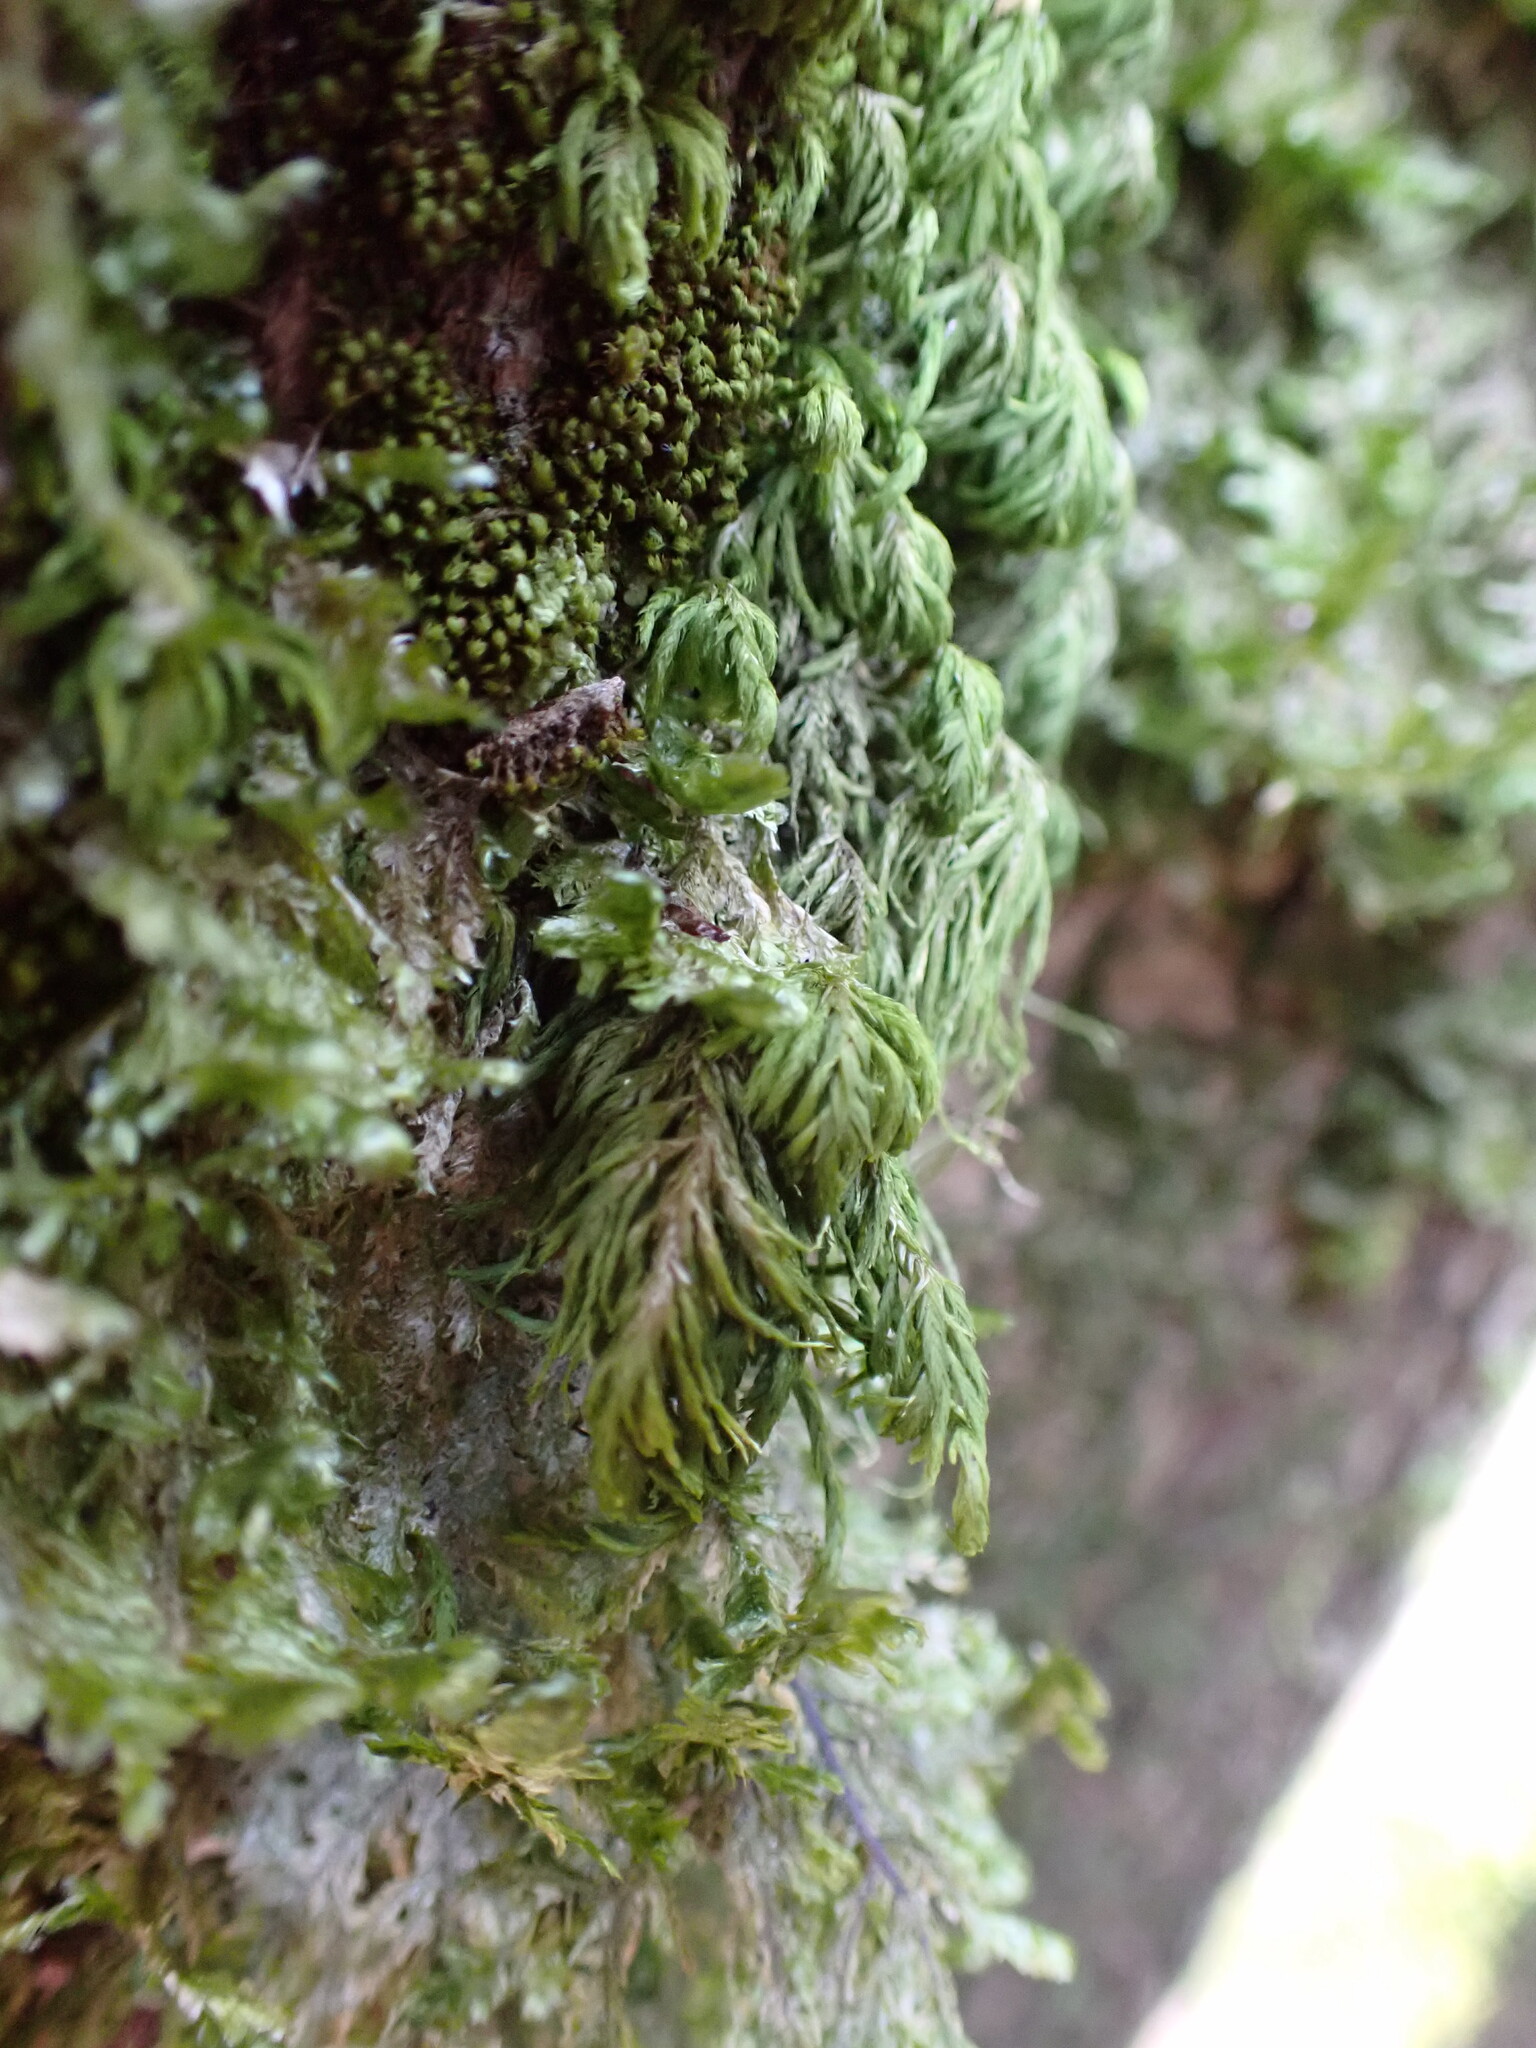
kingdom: Plantae
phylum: Bryophyta
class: Bryopsida
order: Hypnales
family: Cryphaeaceae
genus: Dendroalsia
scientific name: Dendroalsia abietina
